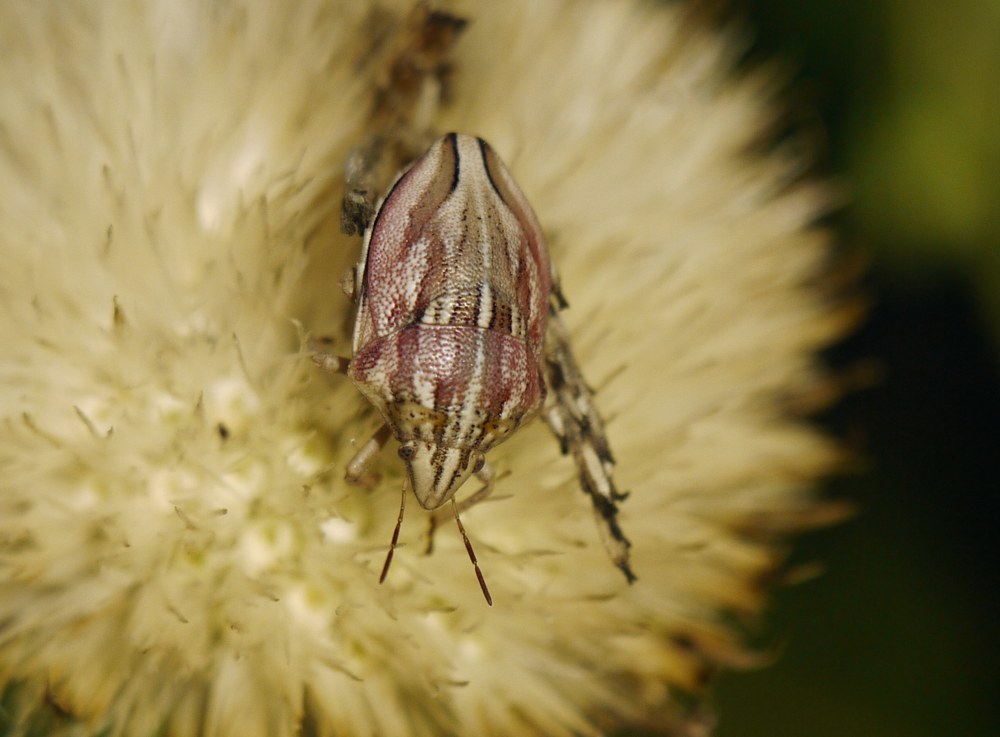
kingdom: Animalia
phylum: Arthropoda
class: Insecta
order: Hemiptera
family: Scutelleridae
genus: Odontotarsus
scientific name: Odontotarsus purpureolineatus
